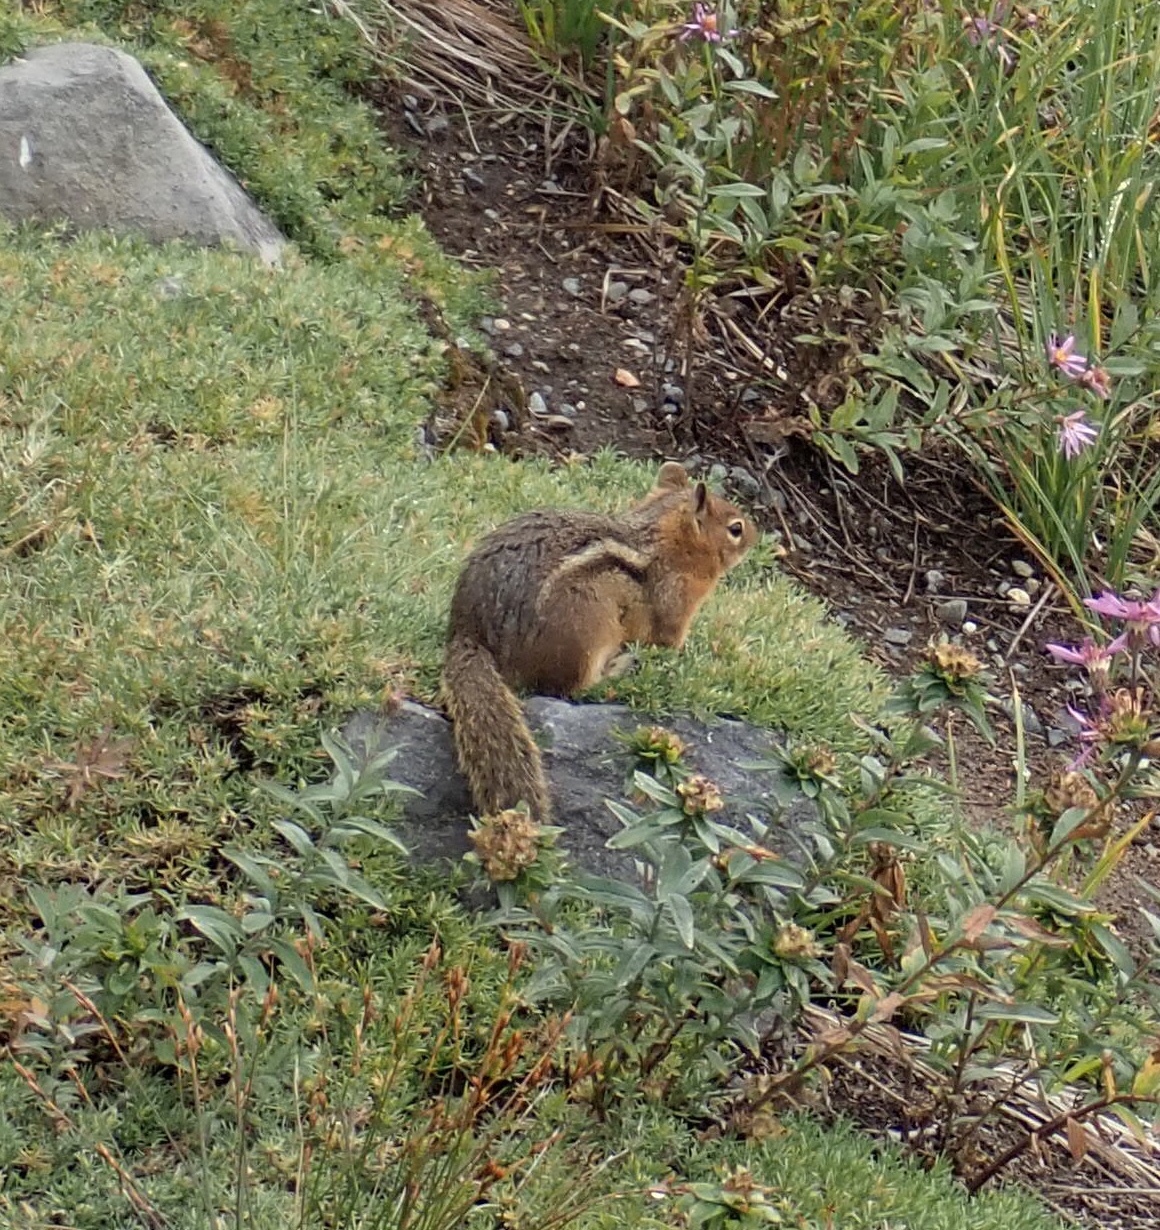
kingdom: Animalia
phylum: Chordata
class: Mammalia
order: Rodentia
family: Sciuridae
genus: Callospermophilus
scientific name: Callospermophilus saturatus
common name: Cascade golden-mantled ground squirrel
